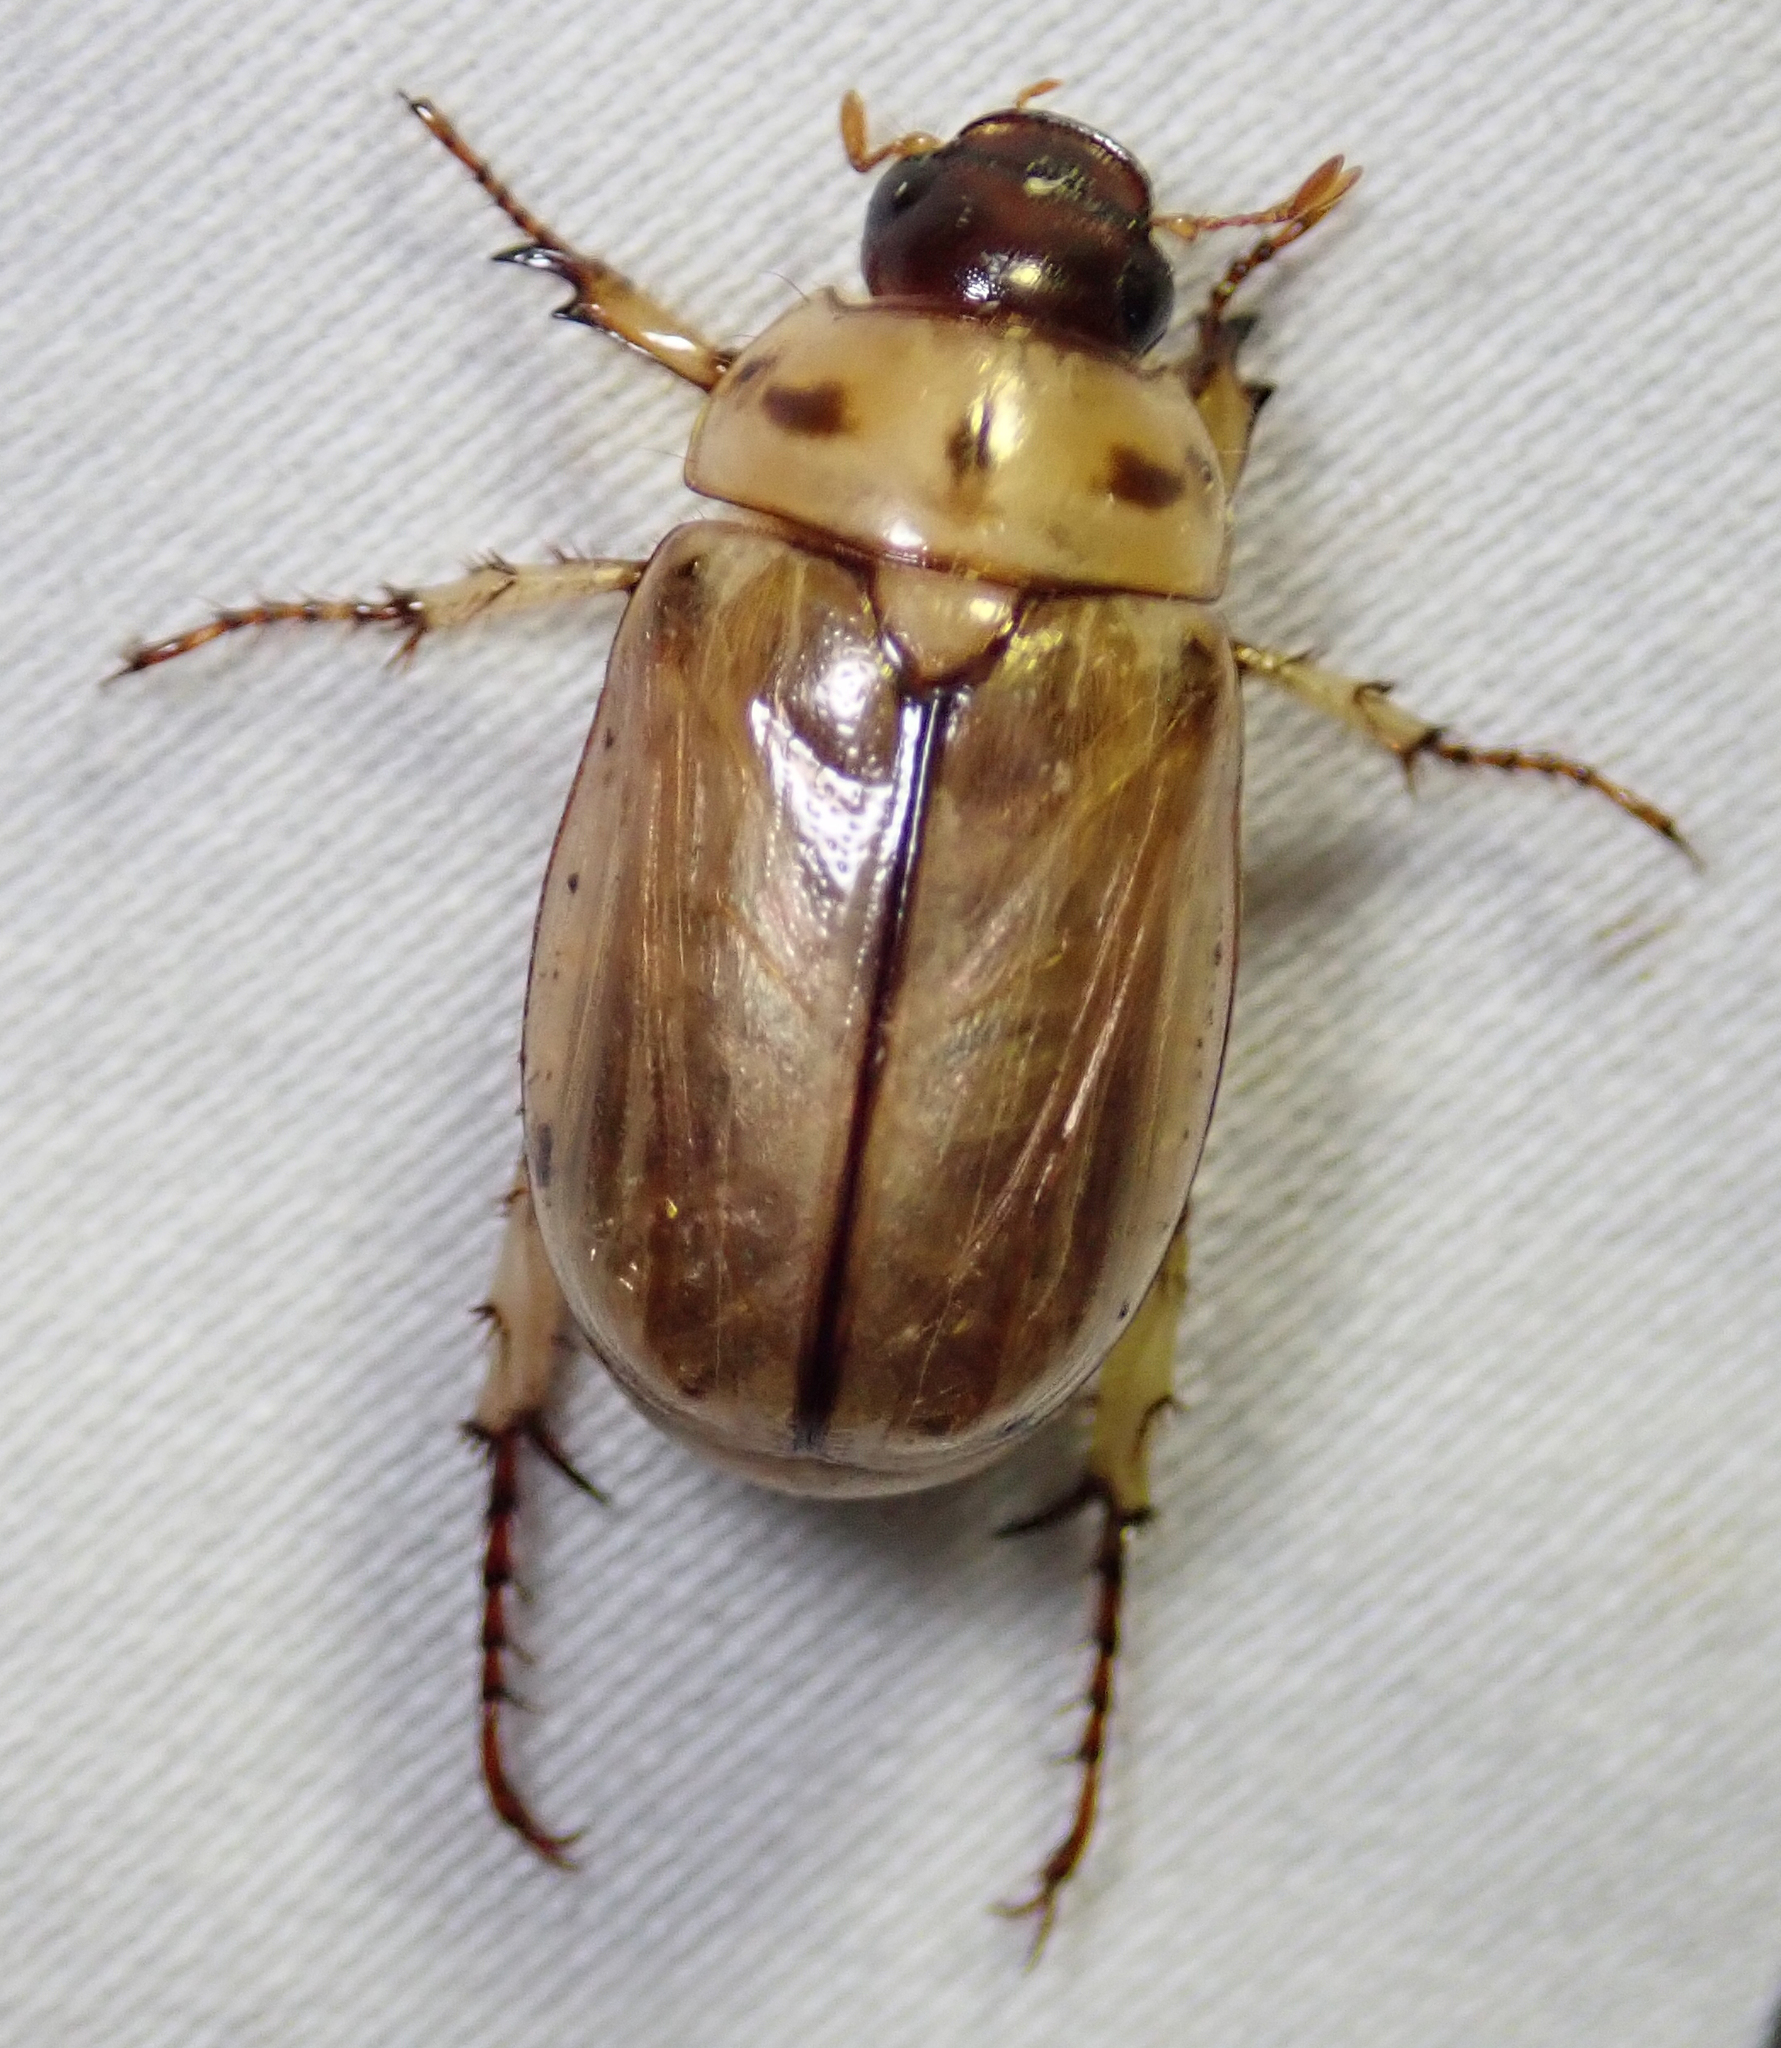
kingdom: Animalia
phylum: Arthropoda
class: Insecta
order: Coleoptera
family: Scarabaeidae
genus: Anomala
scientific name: Anomala ustulata
